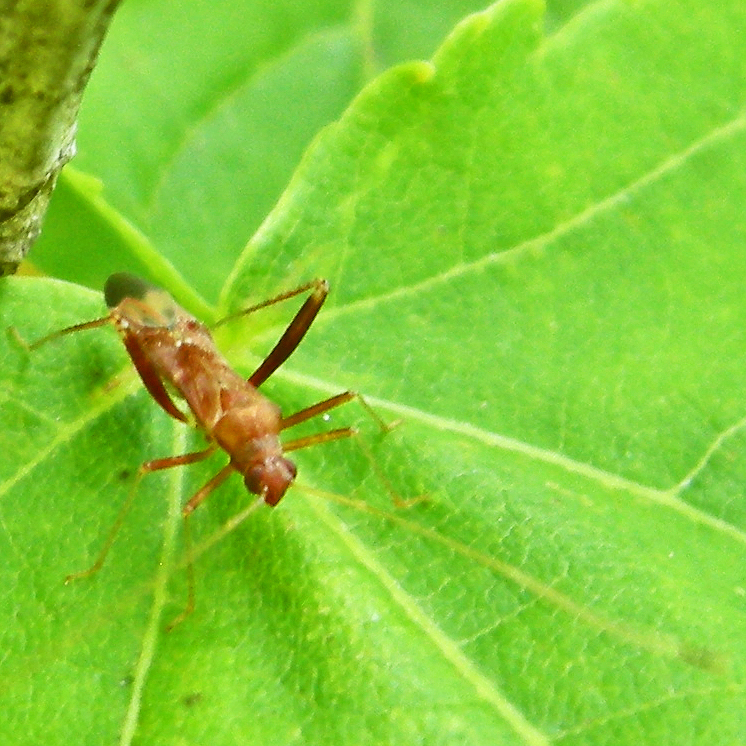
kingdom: Animalia
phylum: Arthropoda
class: Insecta
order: Hemiptera
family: Miridae
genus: Paraxenetus
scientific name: Paraxenetus guttulatus
